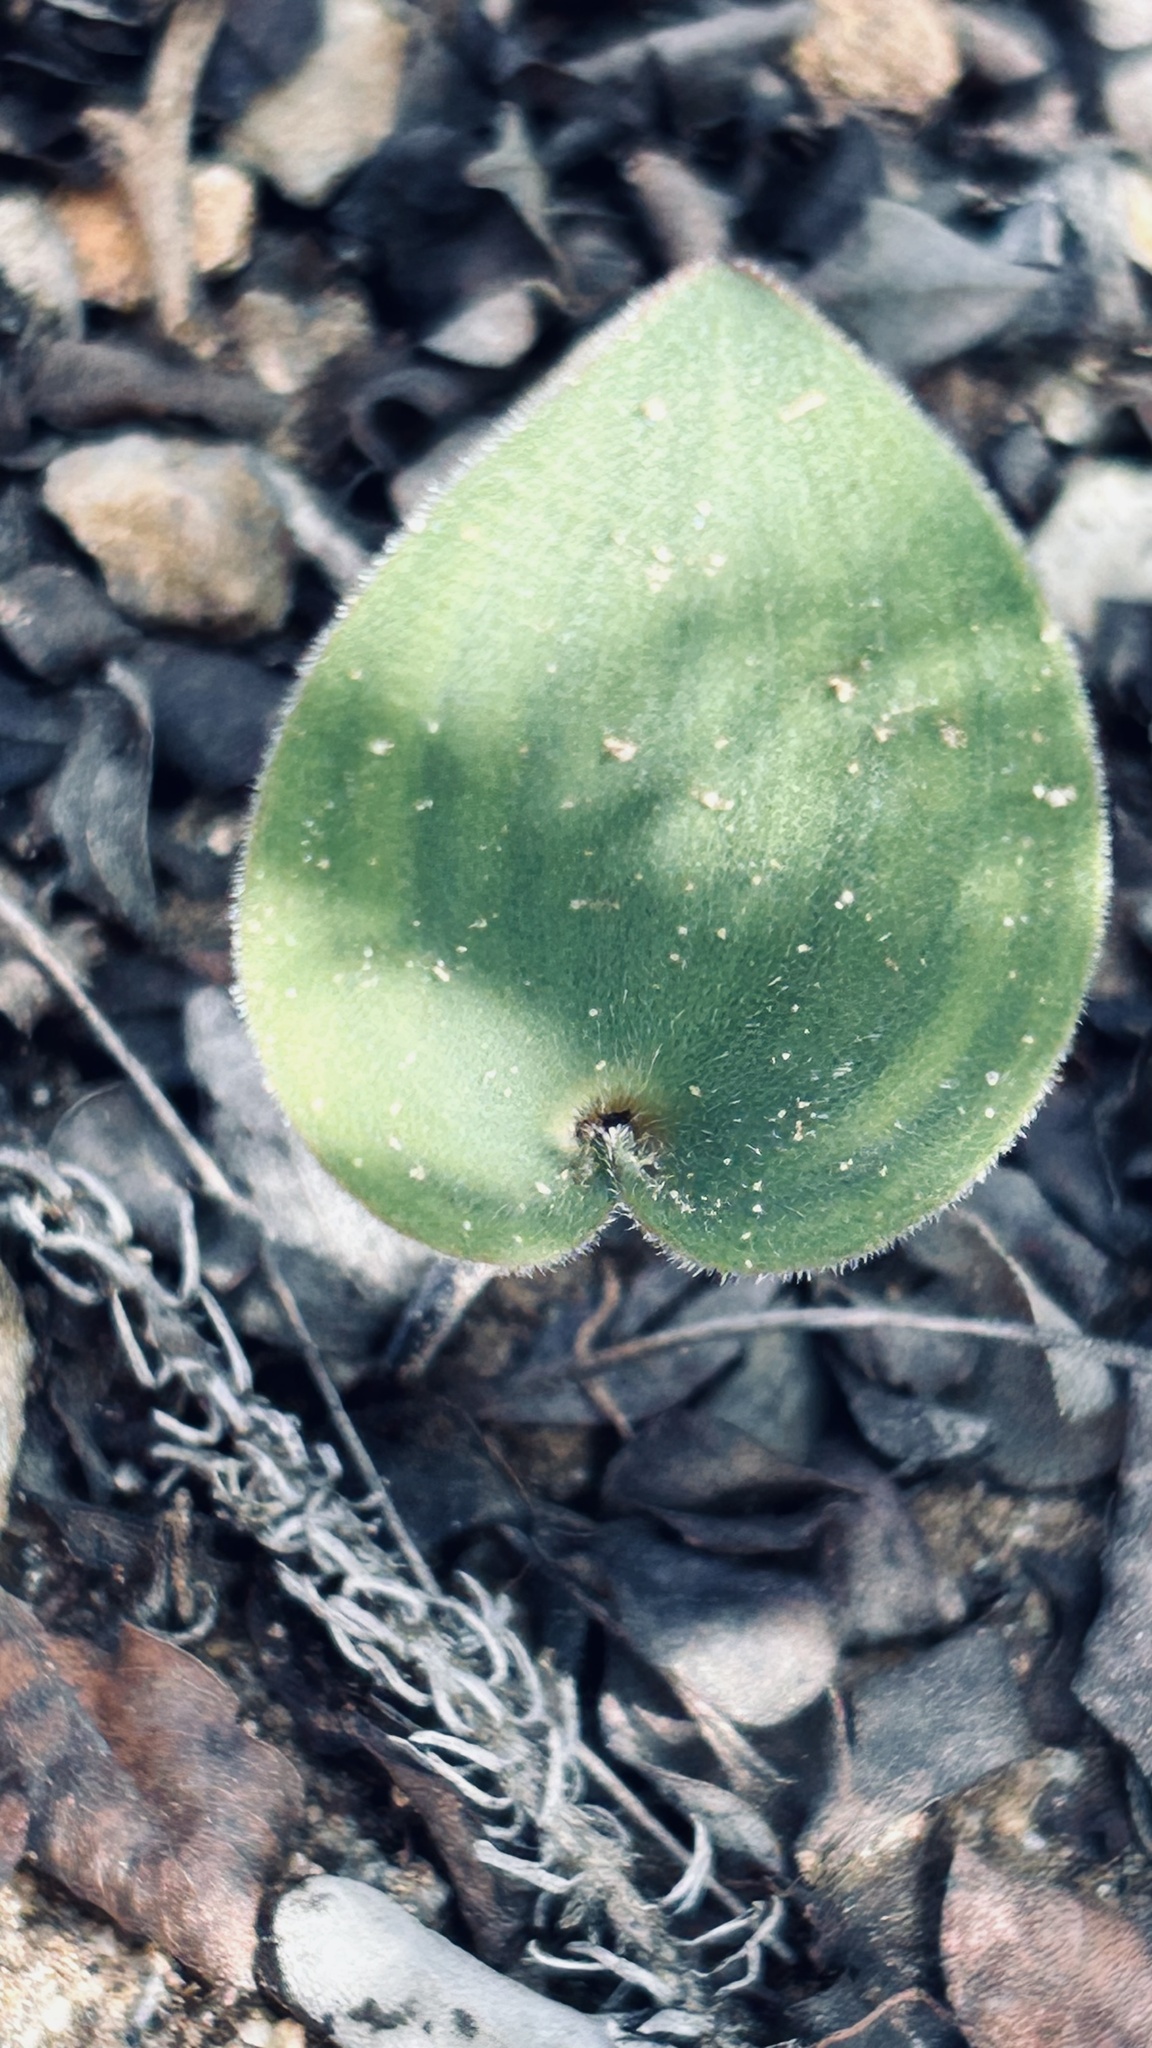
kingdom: Plantae
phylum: Tracheophyta
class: Liliopsida
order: Asparagales
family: Asparagaceae
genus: Eriospermum
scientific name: Eriospermum capense
